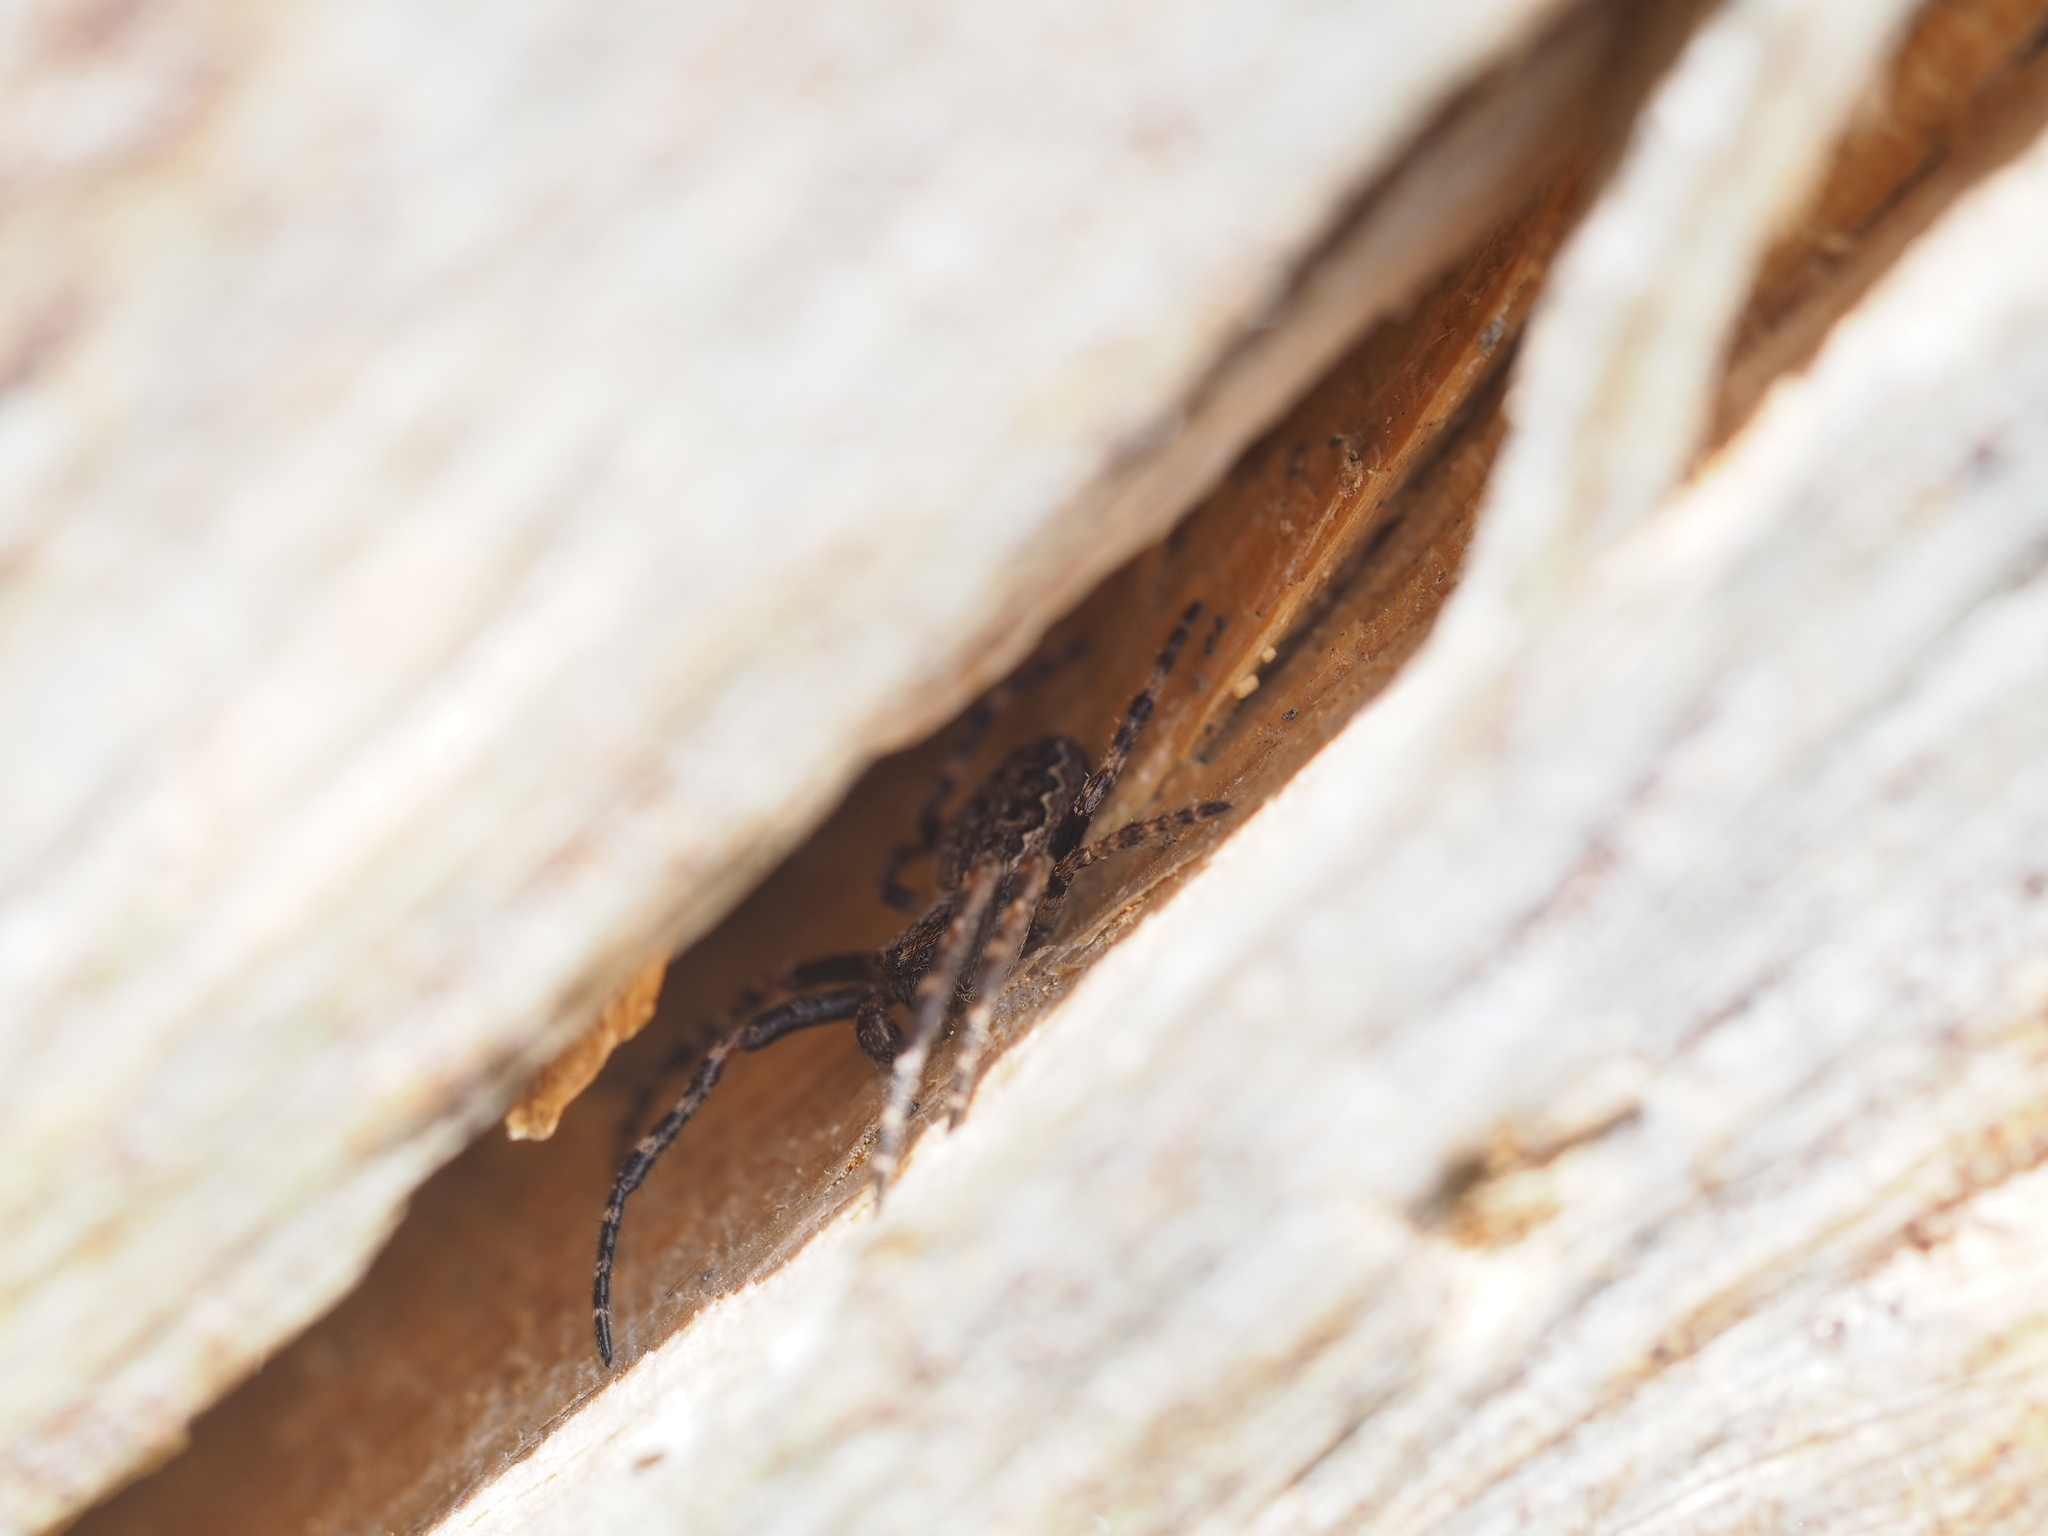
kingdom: Animalia
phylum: Arthropoda
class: Arachnida
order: Araneae
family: Araneidae
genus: Nuctenea
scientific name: Nuctenea umbratica
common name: Toad spider
